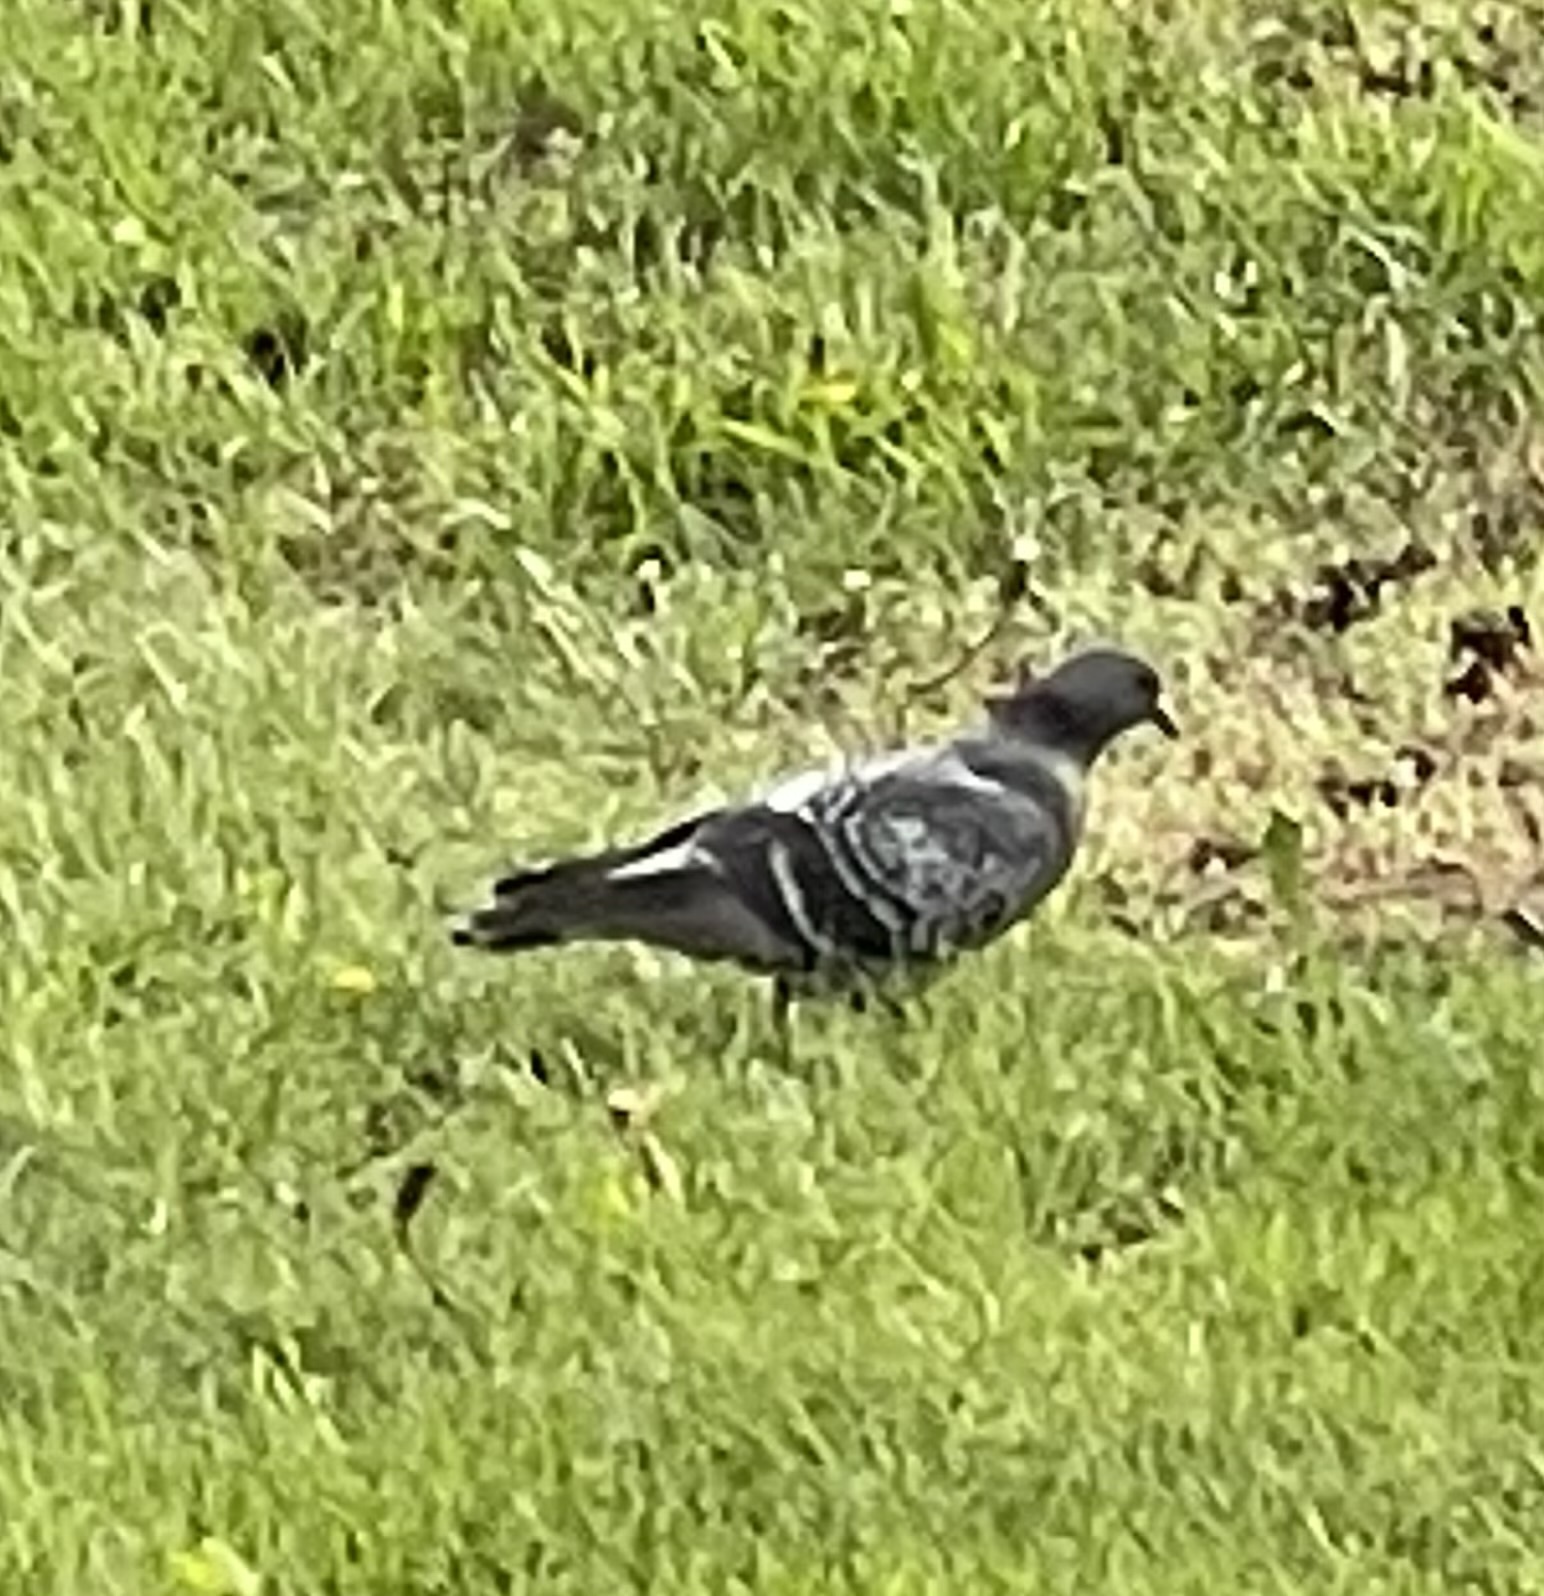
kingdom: Animalia
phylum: Chordata
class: Aves
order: Columbiformes
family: Columbidae
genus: Columba
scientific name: Columba livia
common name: Rock pigeon
